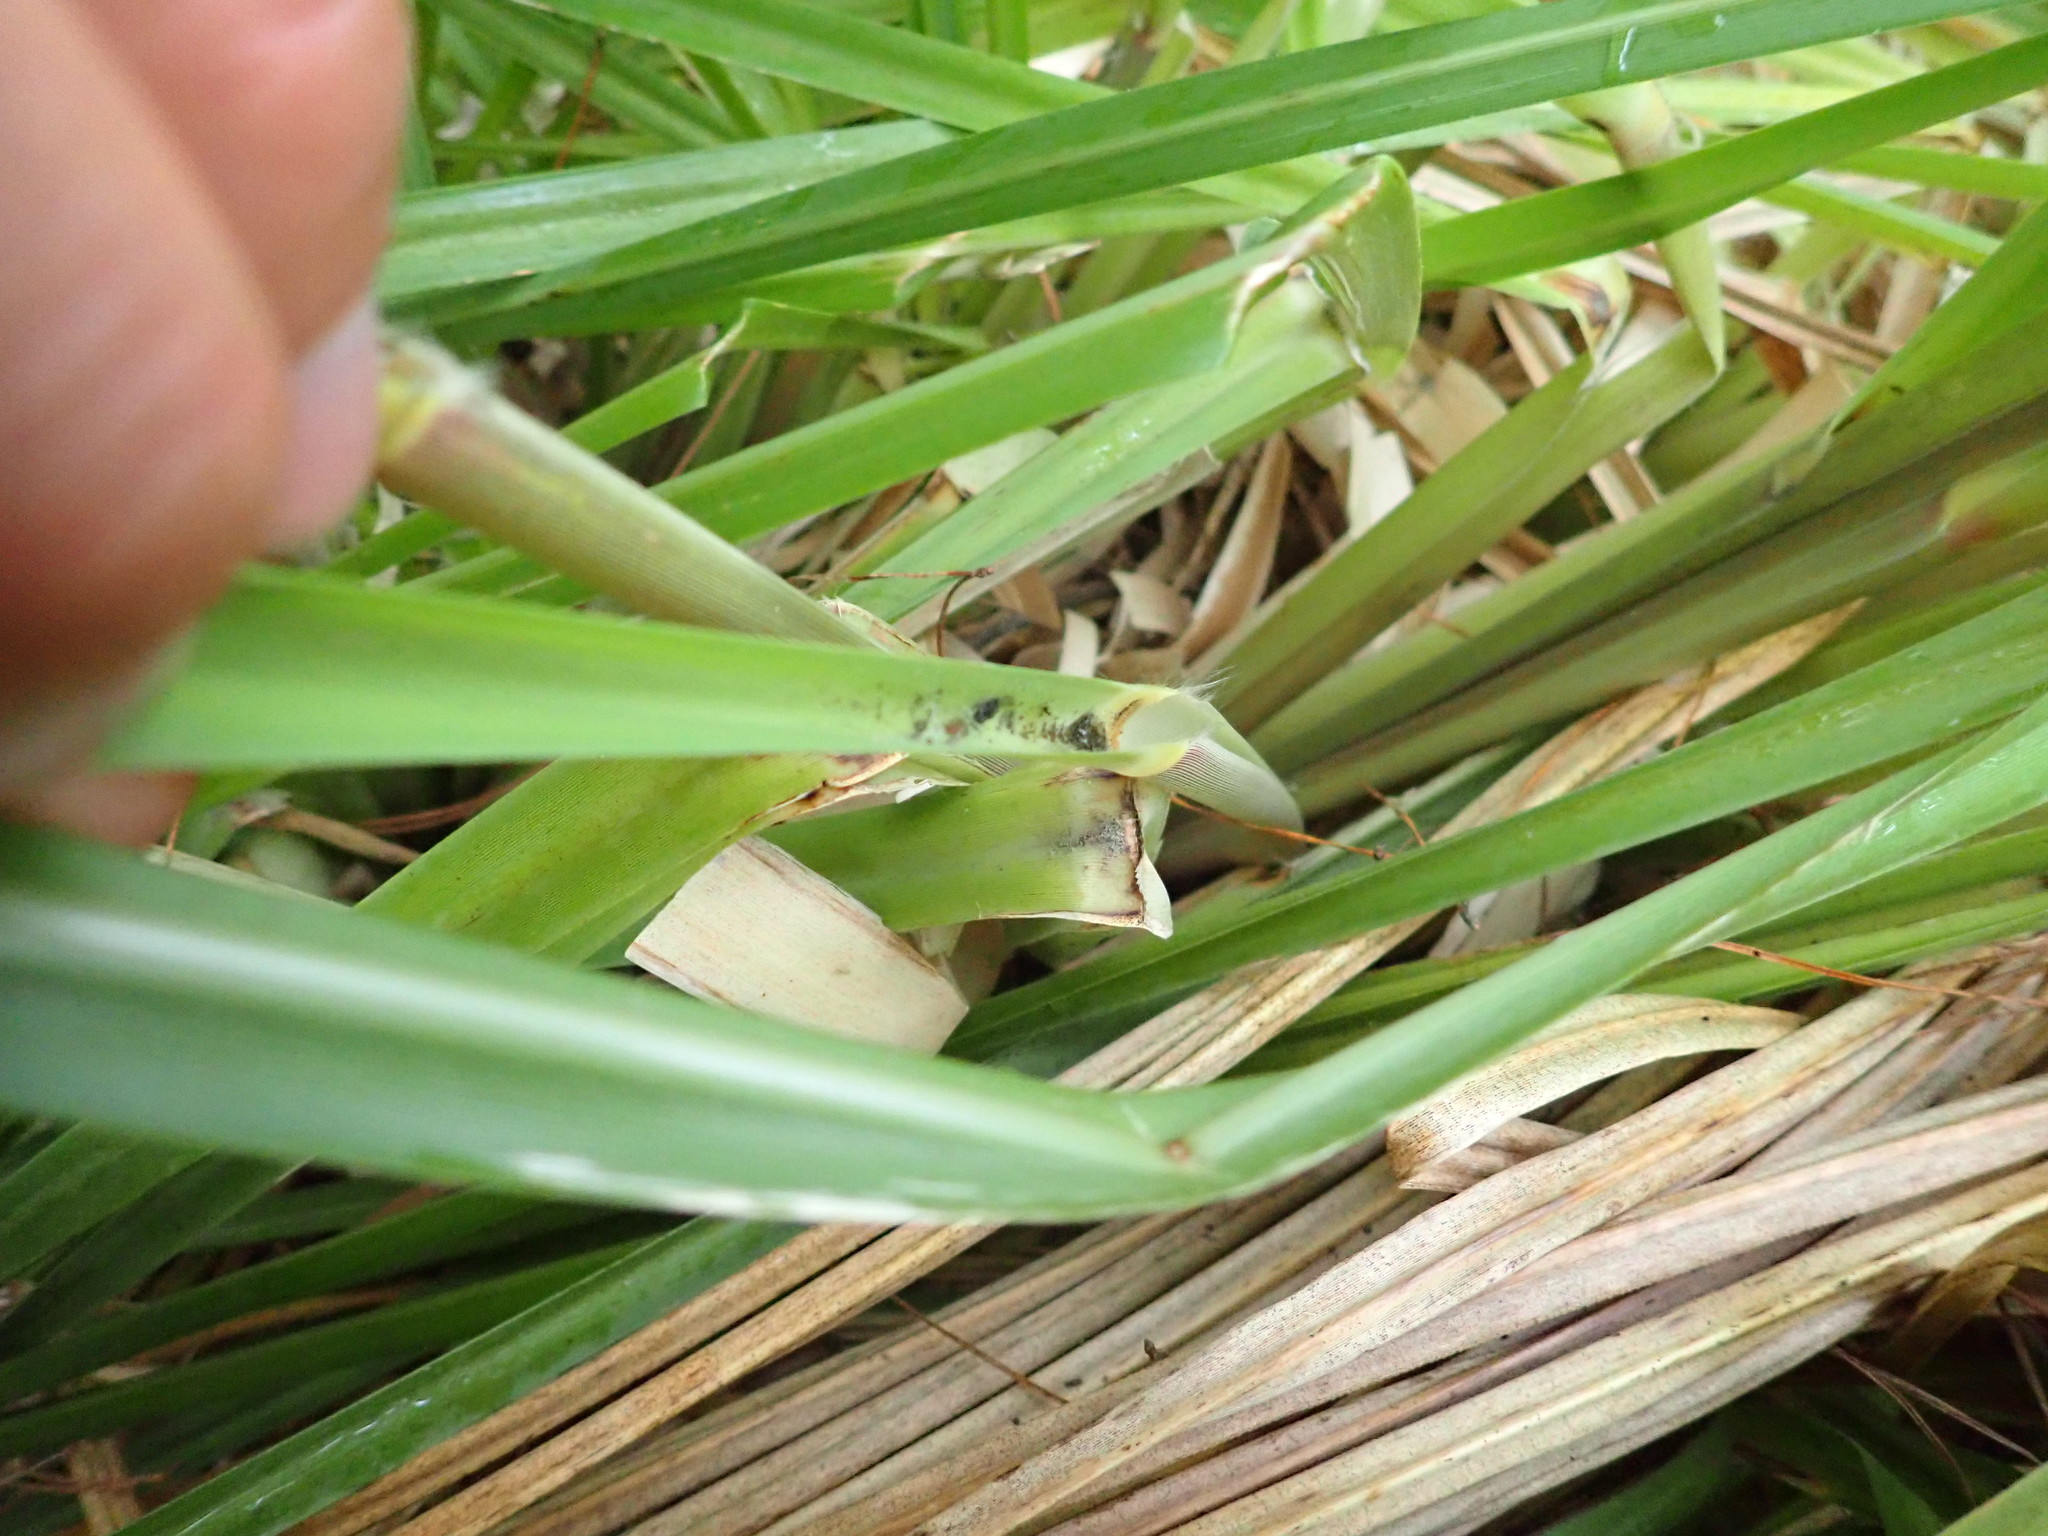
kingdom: Plantae
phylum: Tracheophyta
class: Liliopsida
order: Poales
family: Poaceae
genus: Cortaderia
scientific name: Cortaderia selloana
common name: Uruguayan pampas grass
